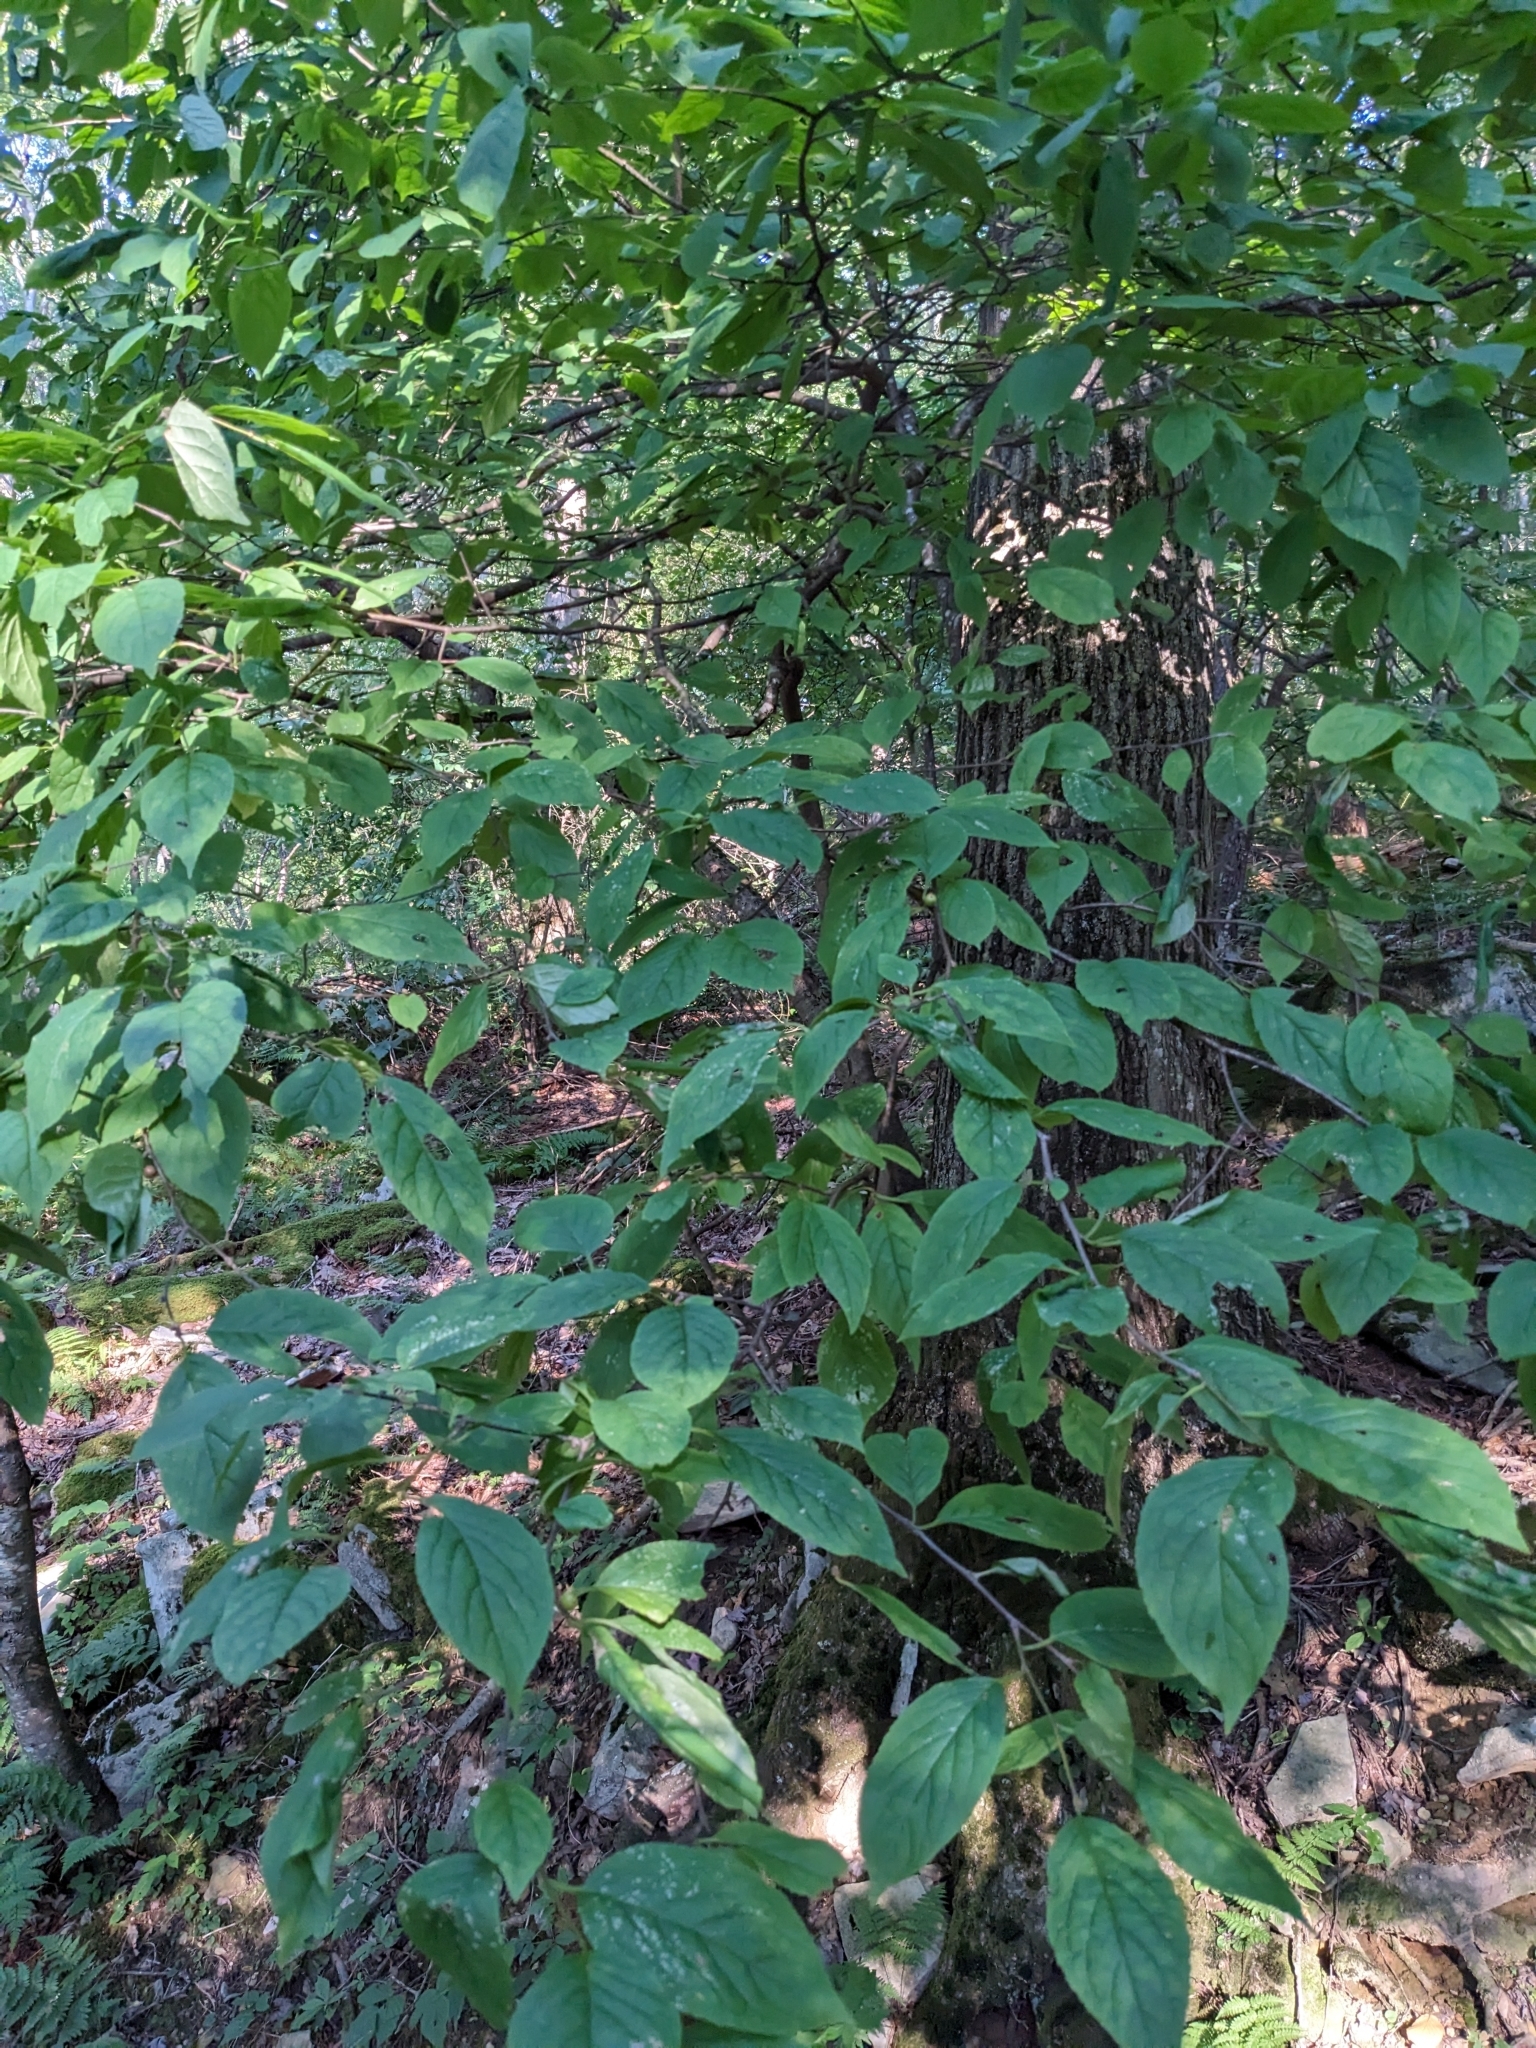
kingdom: Plantae
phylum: Tracheophyta
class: Magnoliopsida
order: Aquifoliales
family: Aquifoliaceae
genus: Ilex
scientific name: Ilex montana
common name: Mountain winterberry
